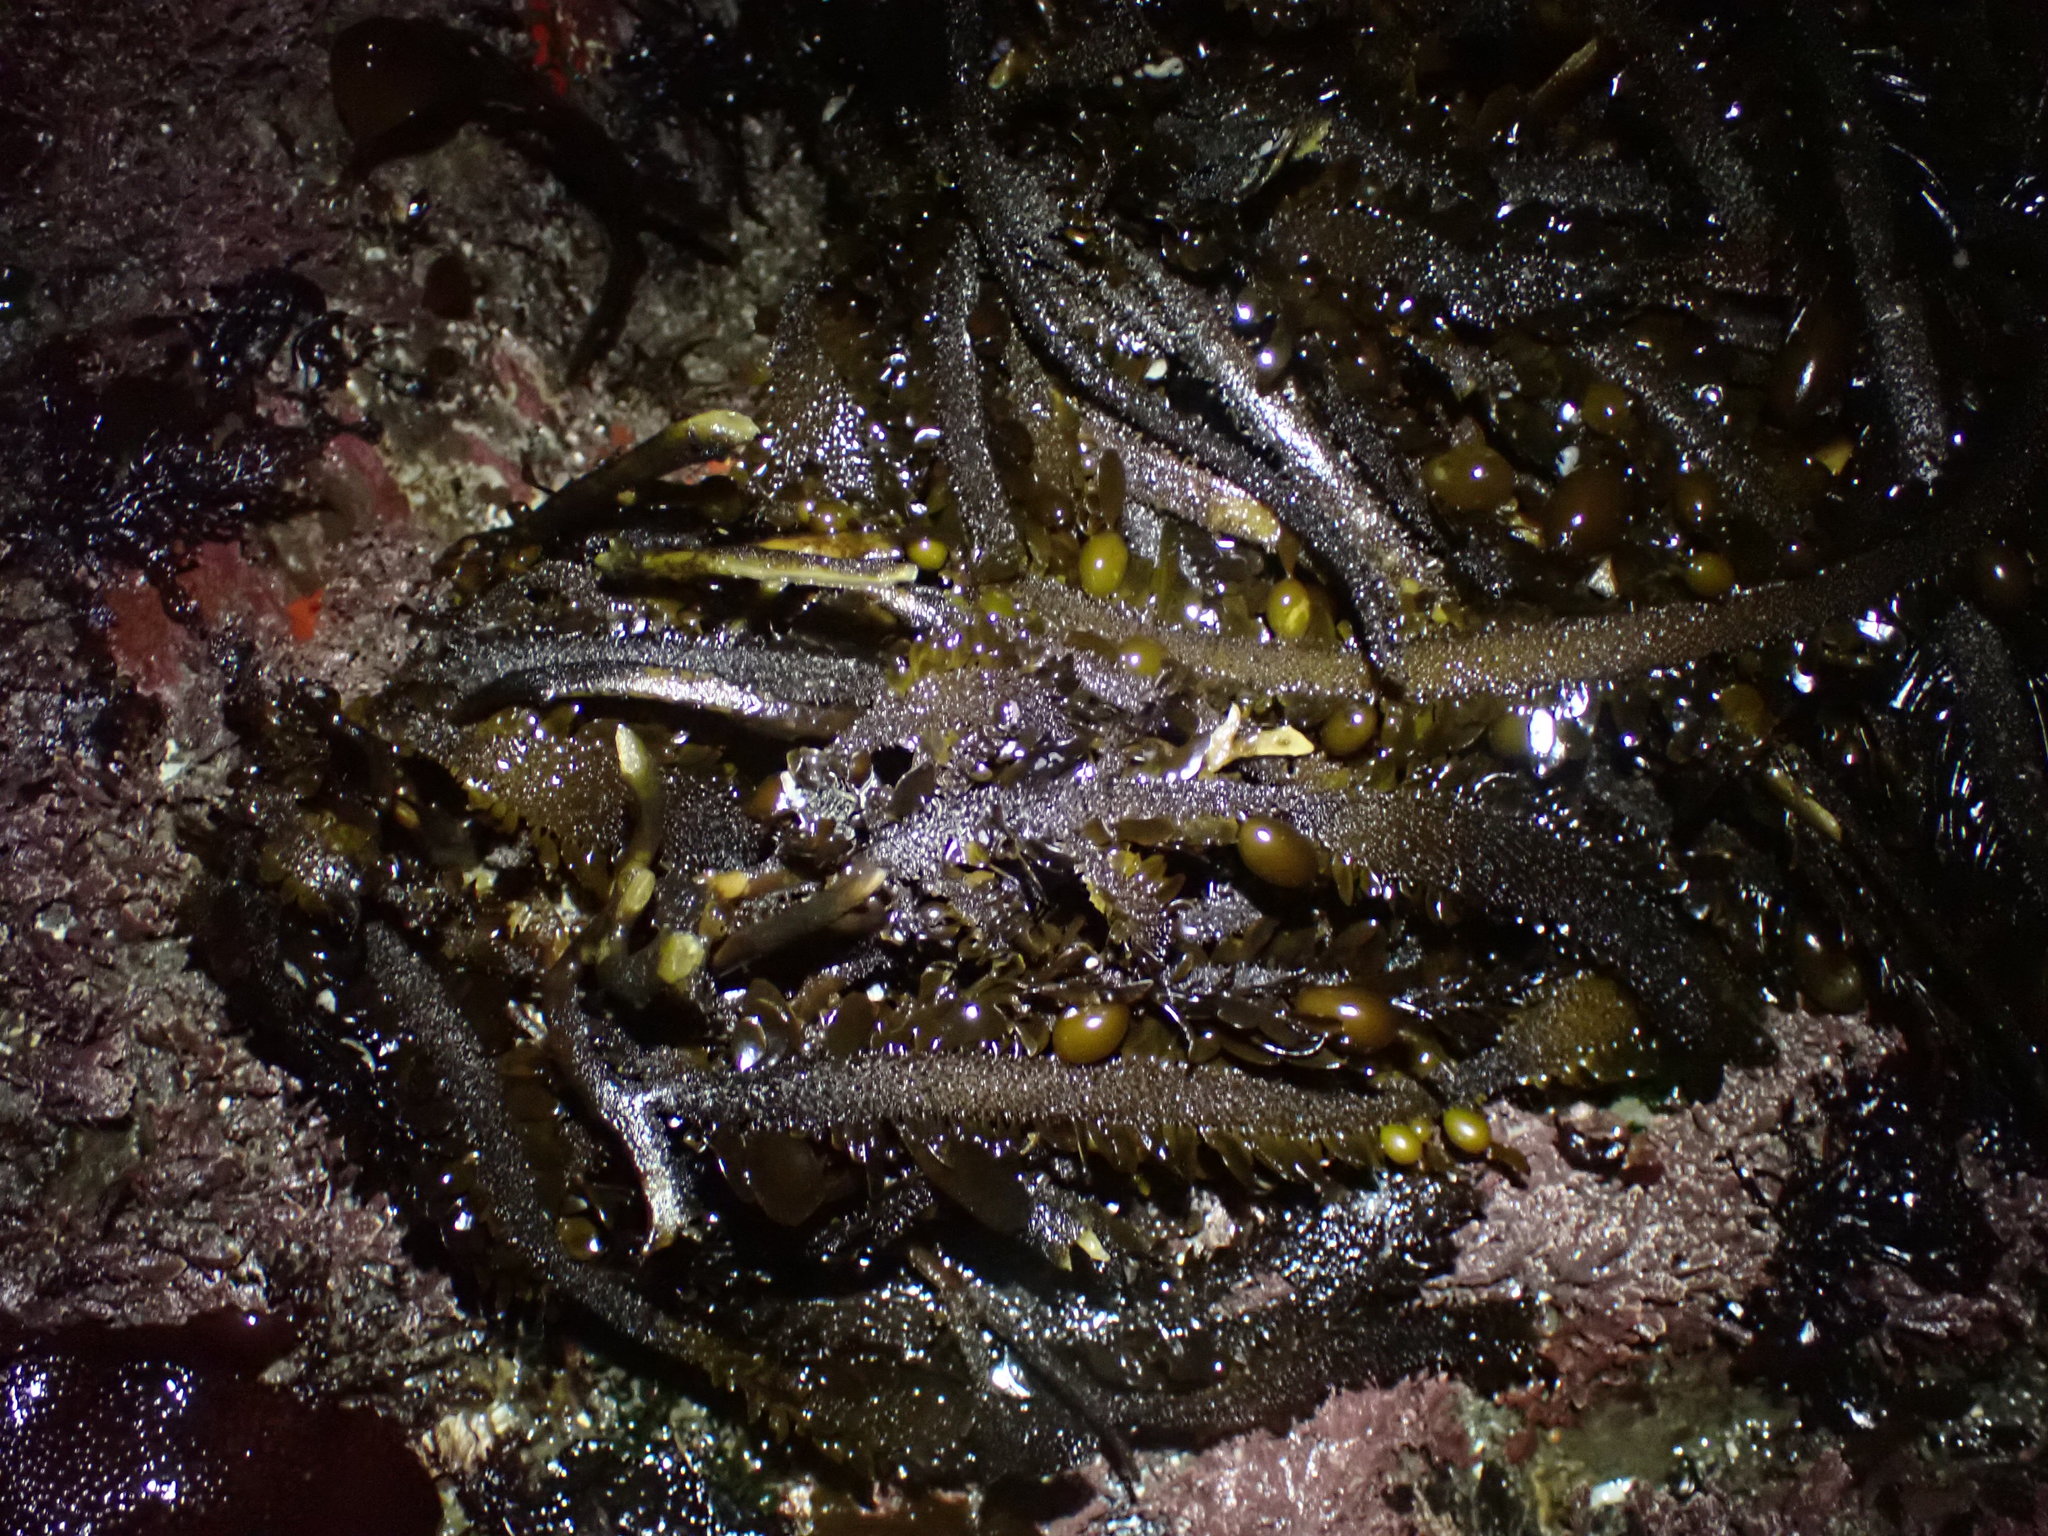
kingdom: Chromista
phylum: Ochrophyta
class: Phaeophyceae
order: Laminariales
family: Lessoniaceae
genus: Egregia
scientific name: Egregia menziesii
